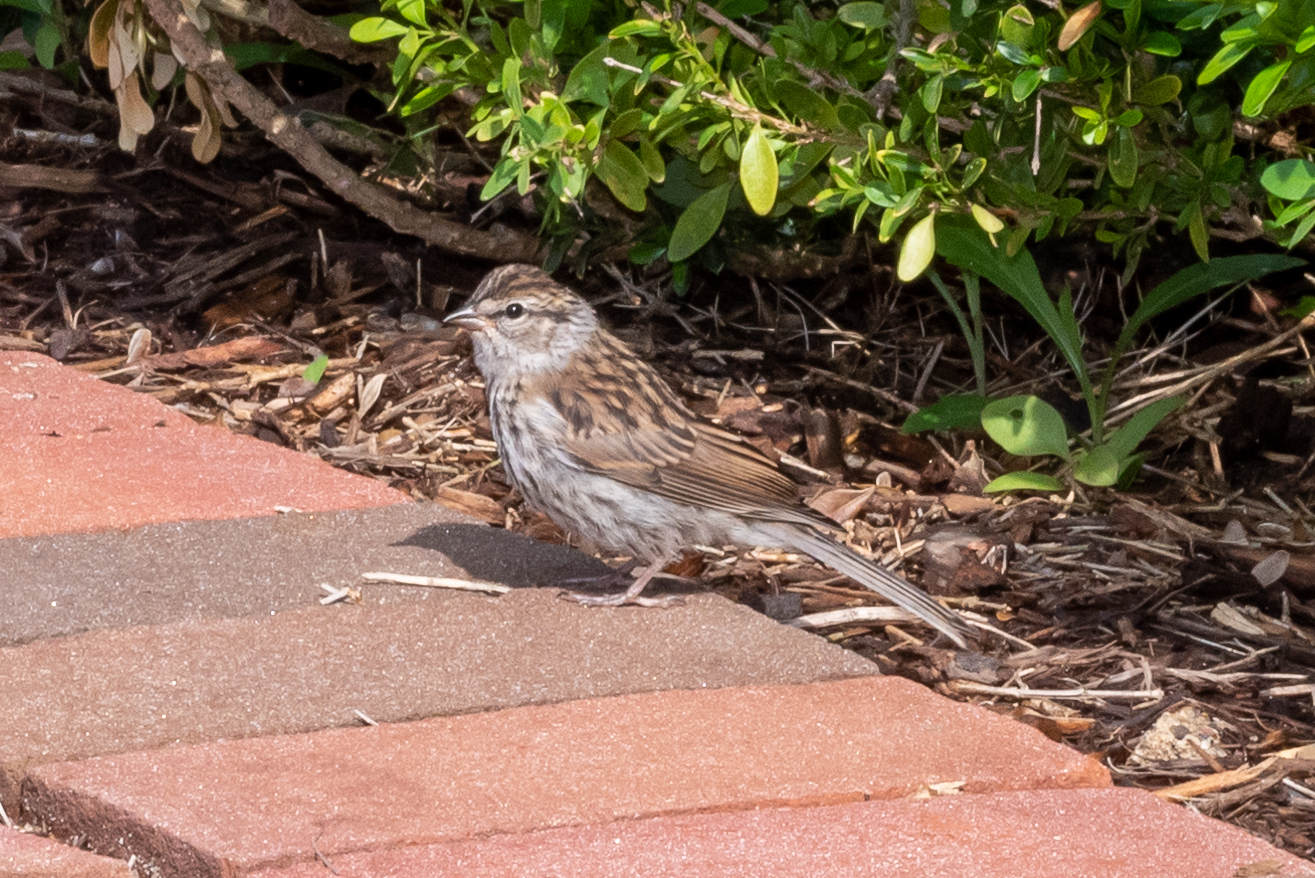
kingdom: Animalia
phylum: Chordata
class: Aves
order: Passeriformes
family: Passerellidae
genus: Spizella
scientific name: Spizella passerina
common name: Chipping sparrow
